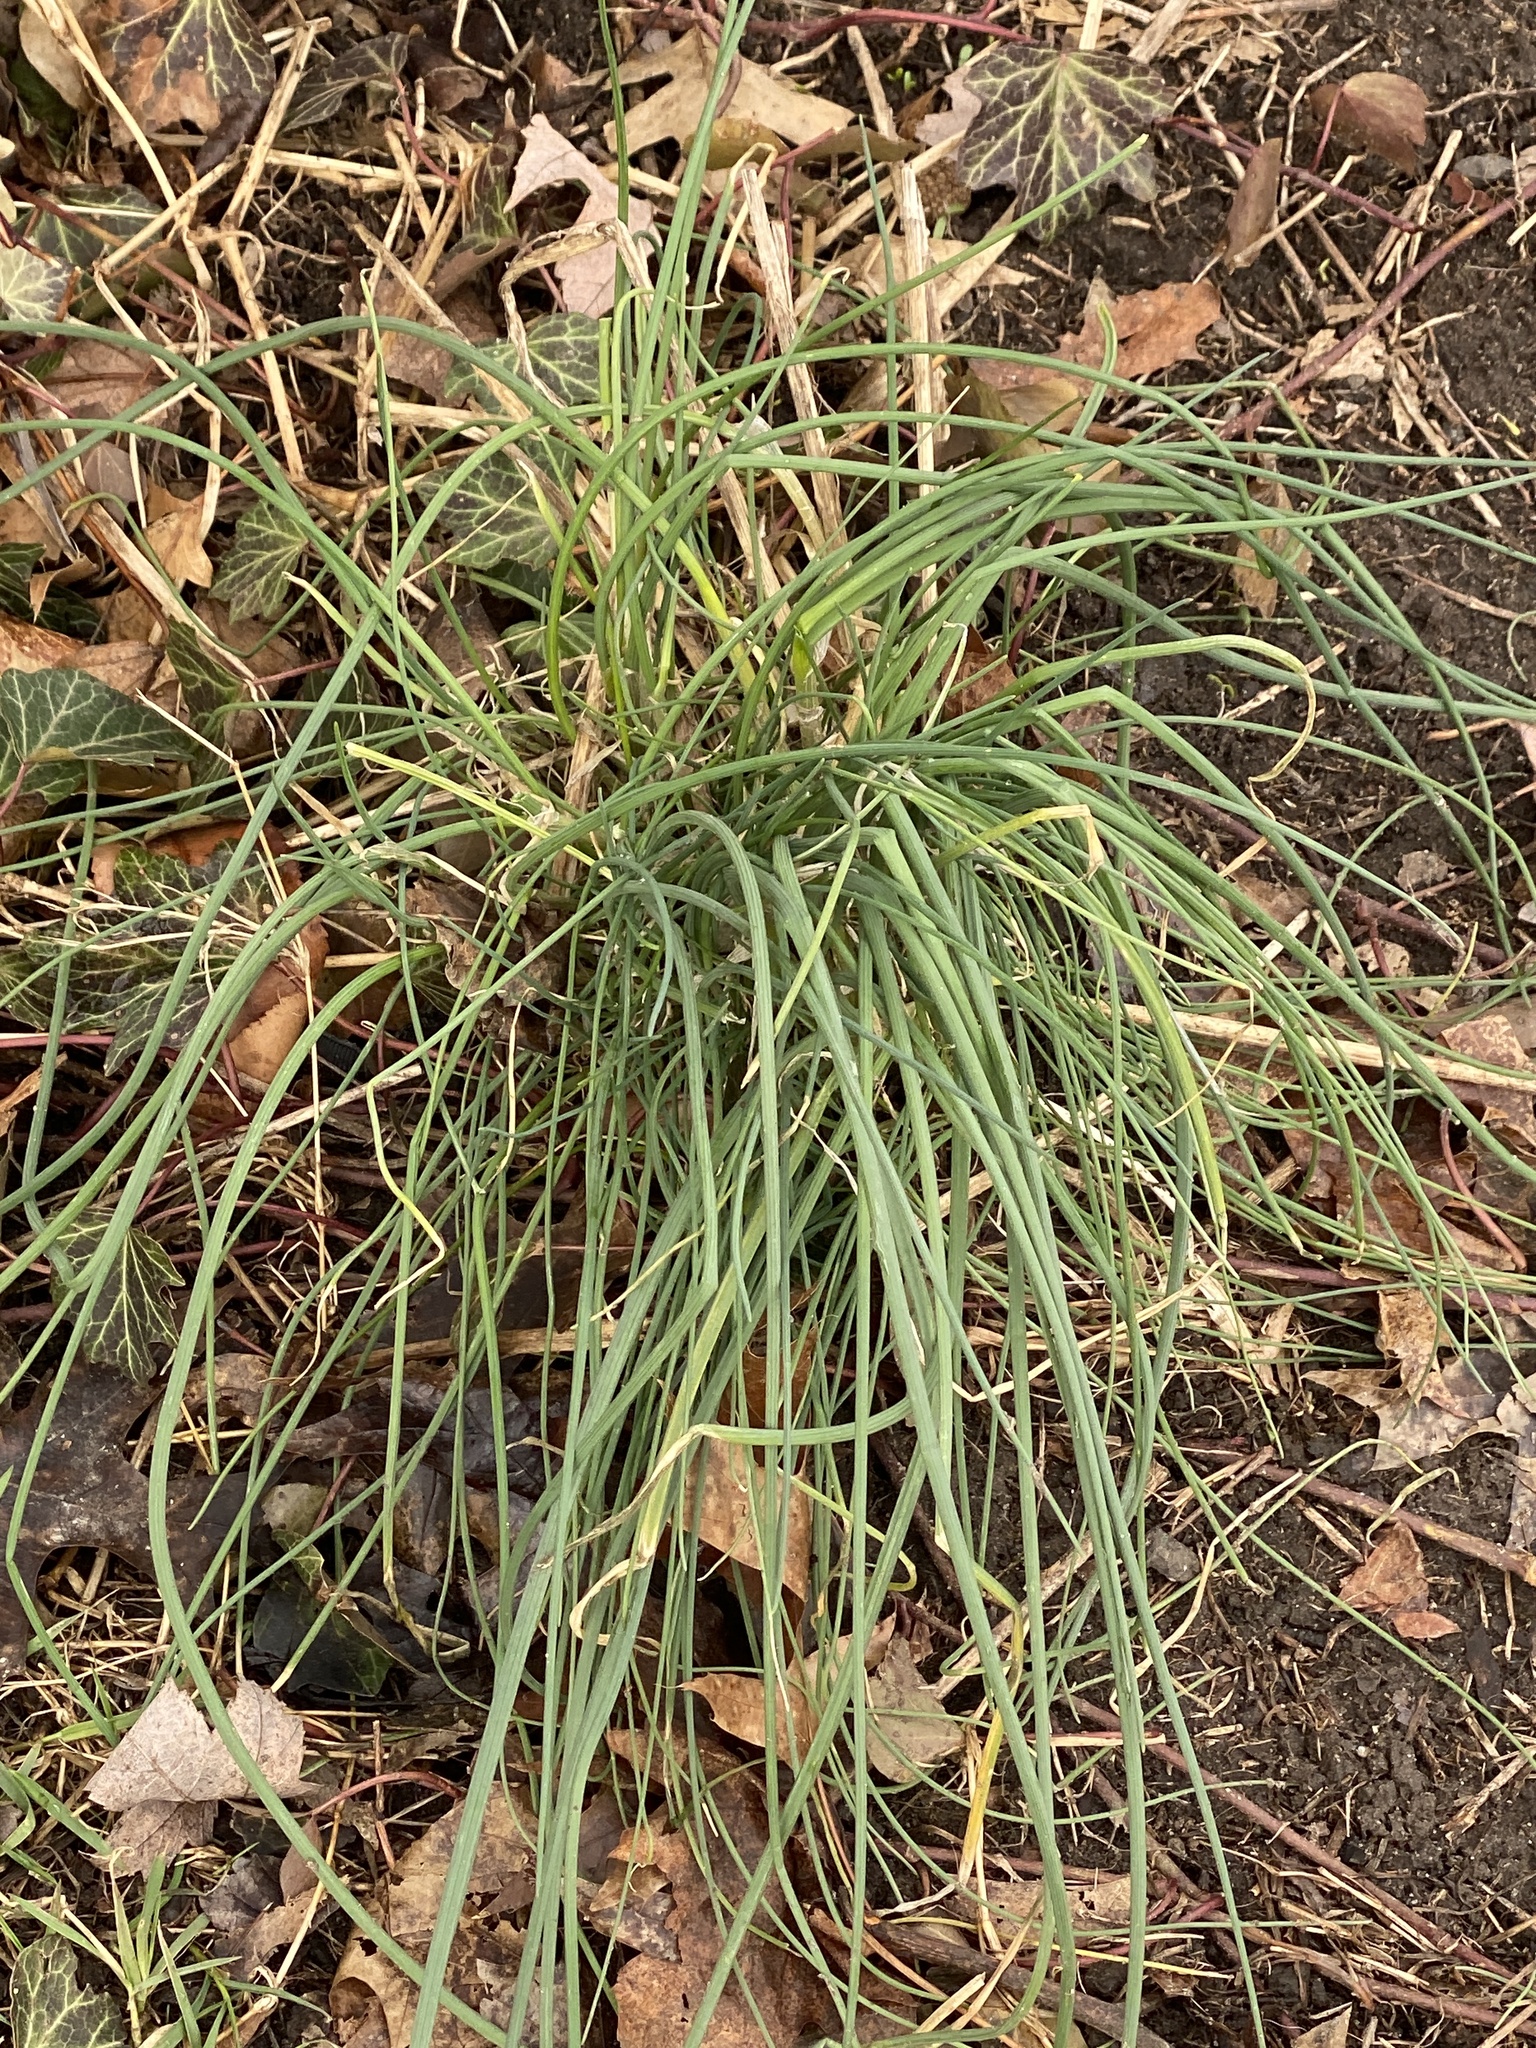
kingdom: Plantae
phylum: Tracheophyta
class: Liliopsida
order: Asparagales
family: Amaryllidaceae
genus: Allium
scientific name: Allium vineale
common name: Crow garlic
